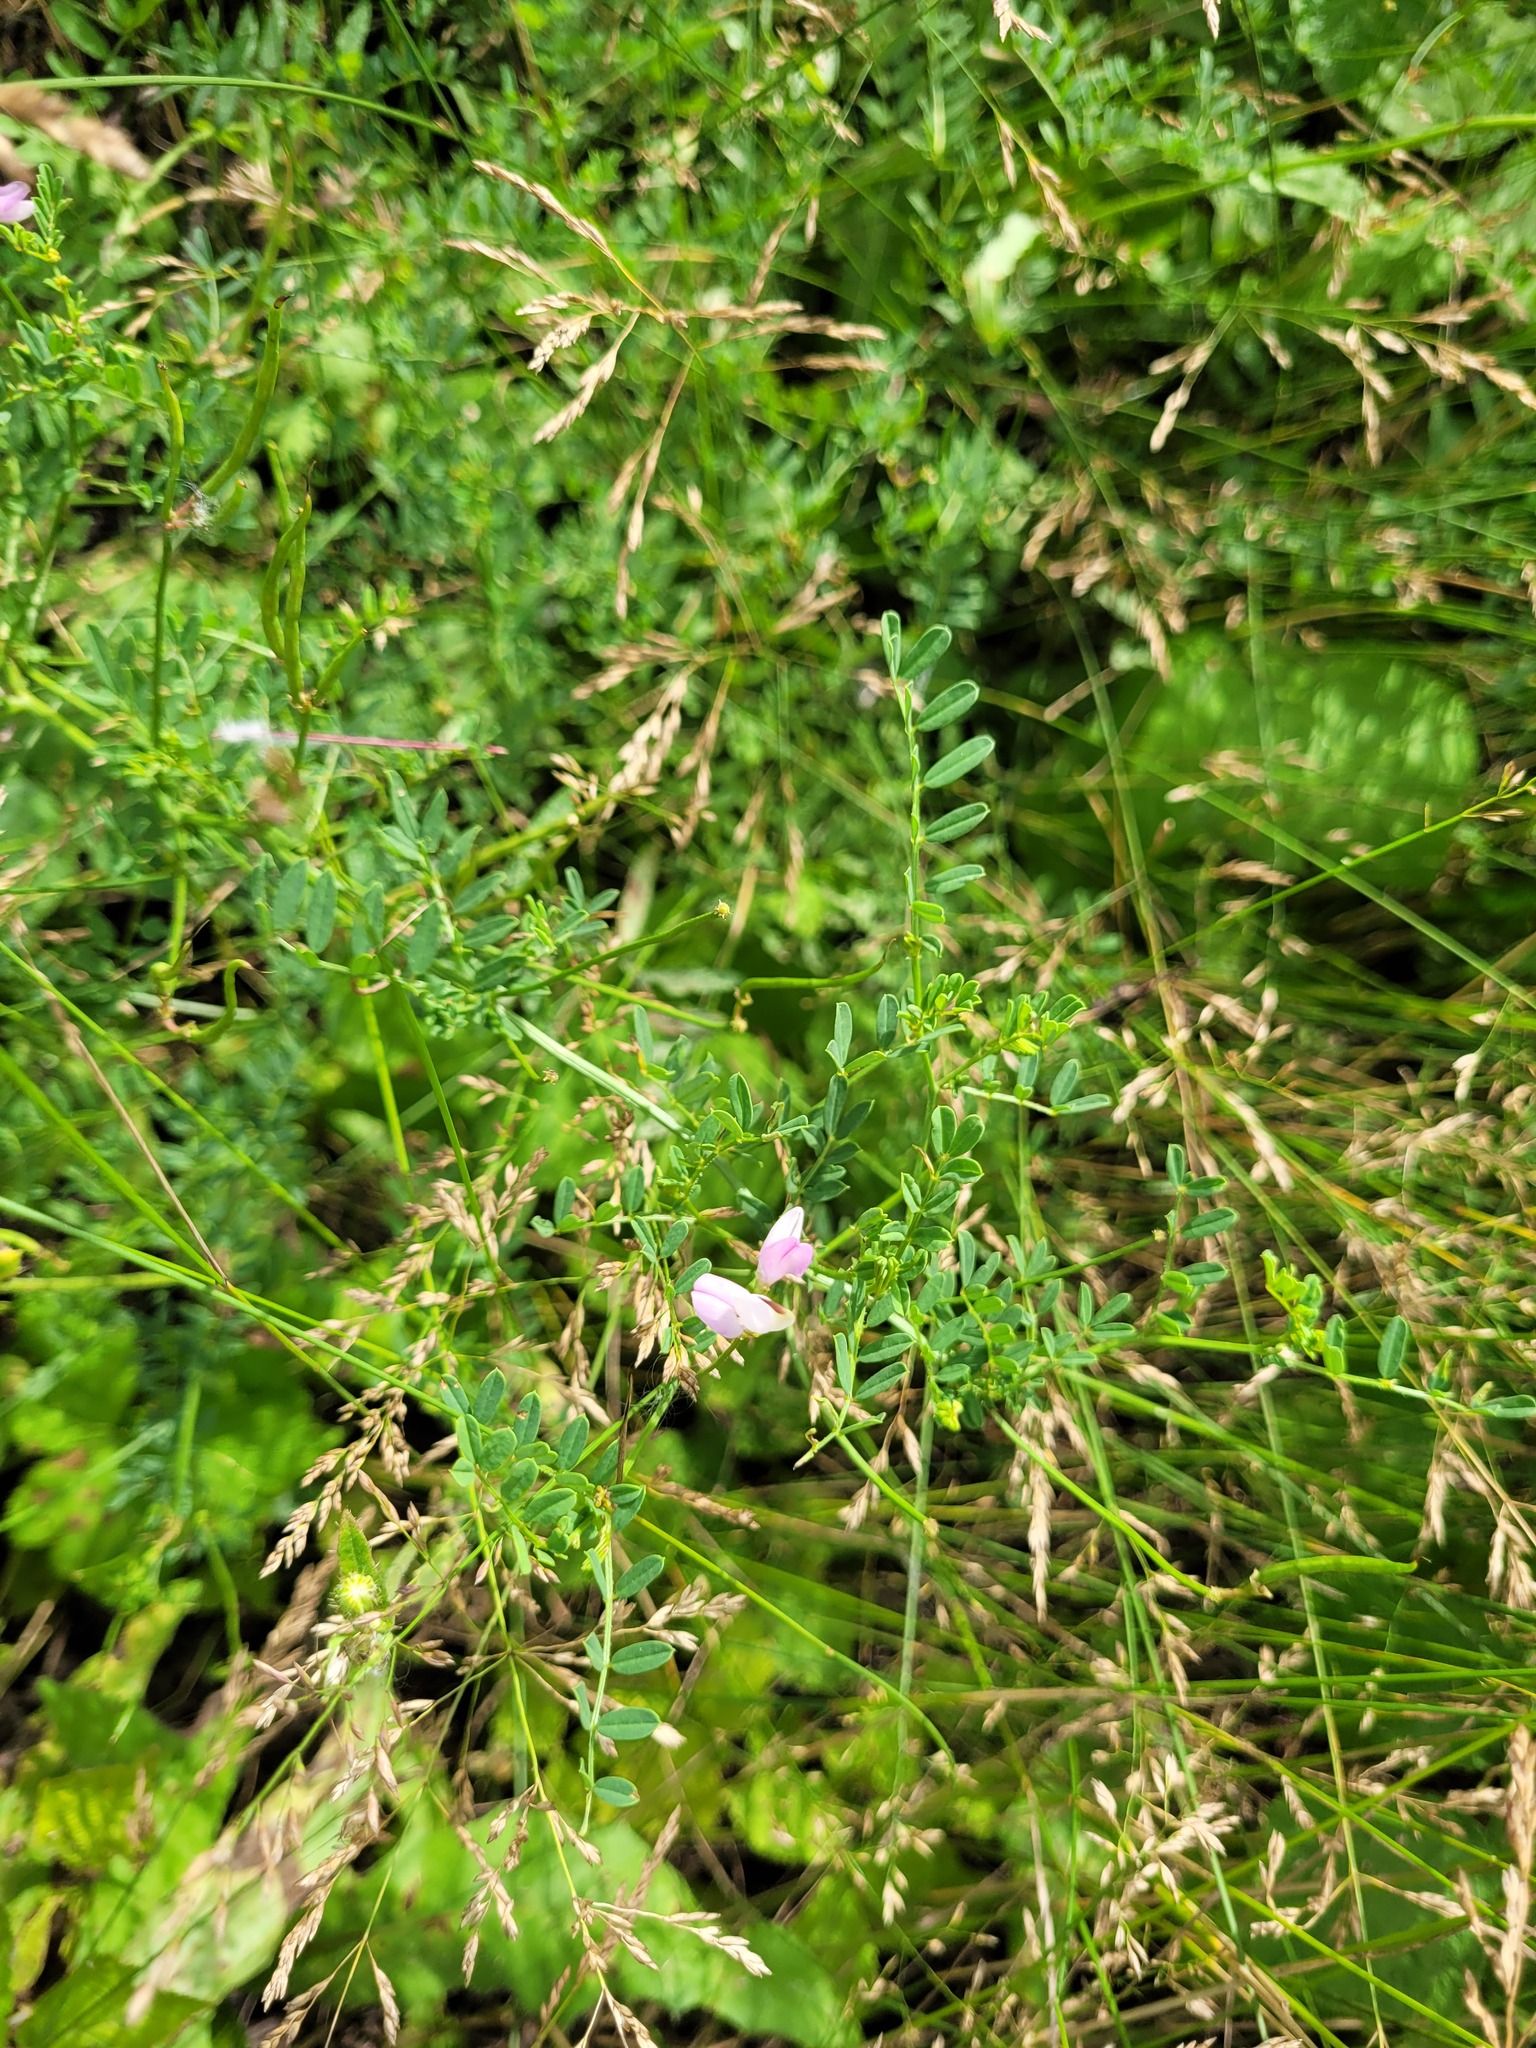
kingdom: Plantae
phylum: Tracheophyta
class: Magnoliopsida
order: Fabales
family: Fabaceae
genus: Coronilla
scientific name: Coronilla varia
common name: Crownvetch
